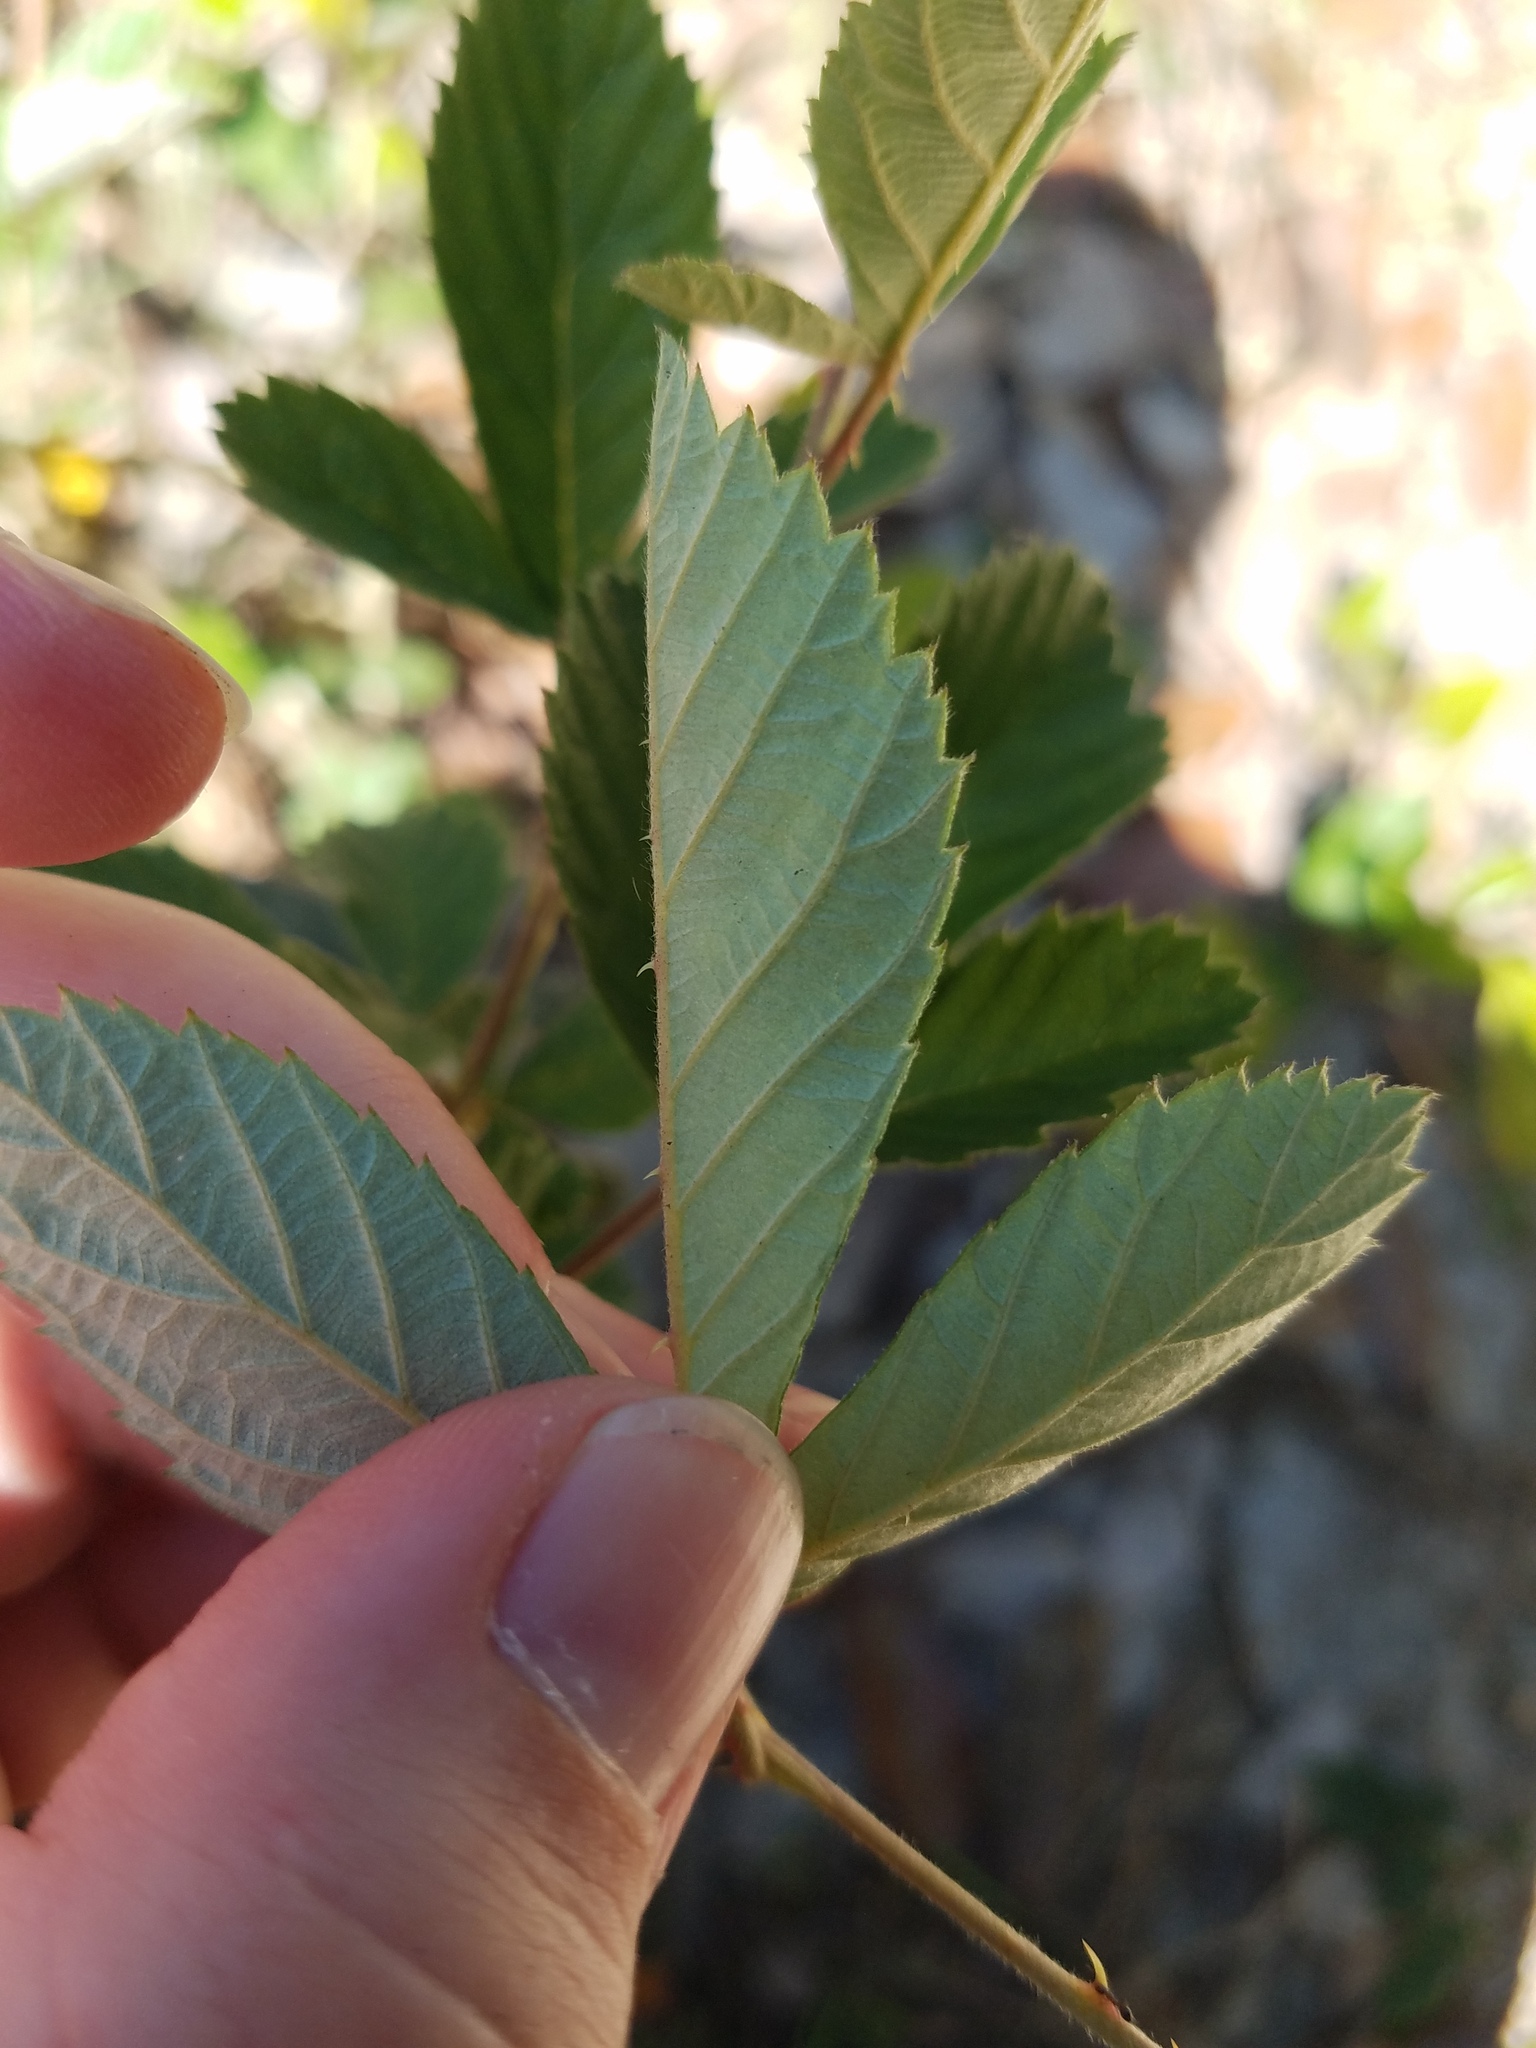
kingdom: Plantae
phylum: Tracheophyta
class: Magnoliopsida
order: Rosales
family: Rosaceae
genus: Rubus
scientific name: Rubus cuneifolius
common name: American bramble
